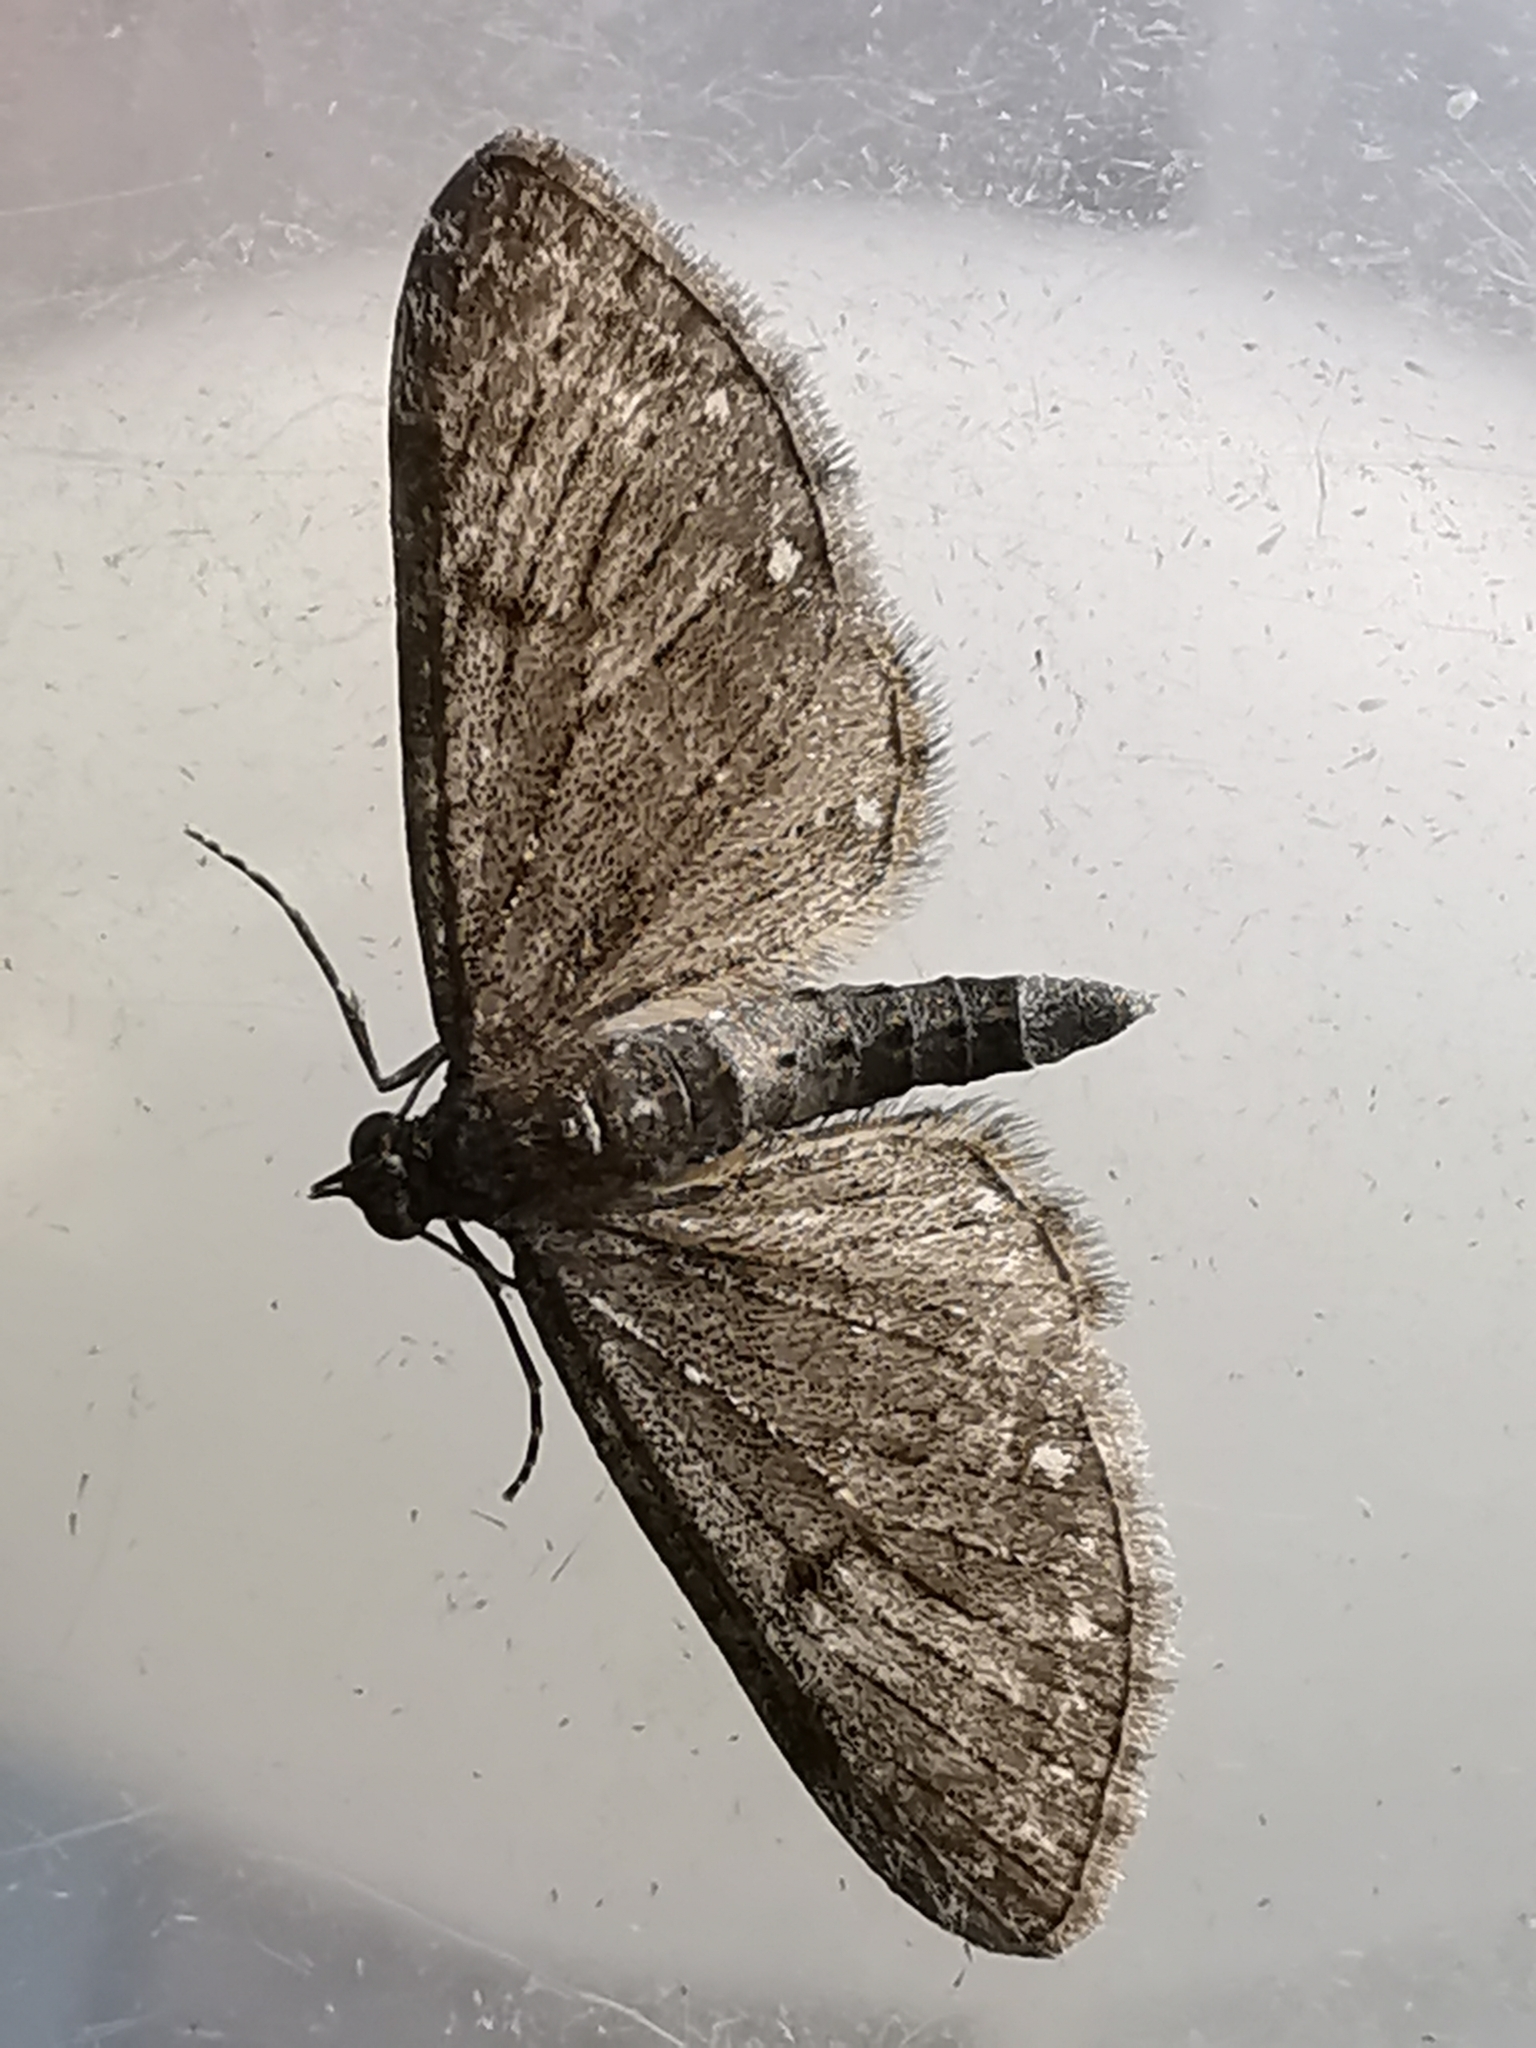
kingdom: Animalia
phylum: Arthropoda
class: Insecta
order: Lepidoptera
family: Geometridae
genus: Eupithecia
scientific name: Eupithecia tripunctaria
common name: White-spotted pug
